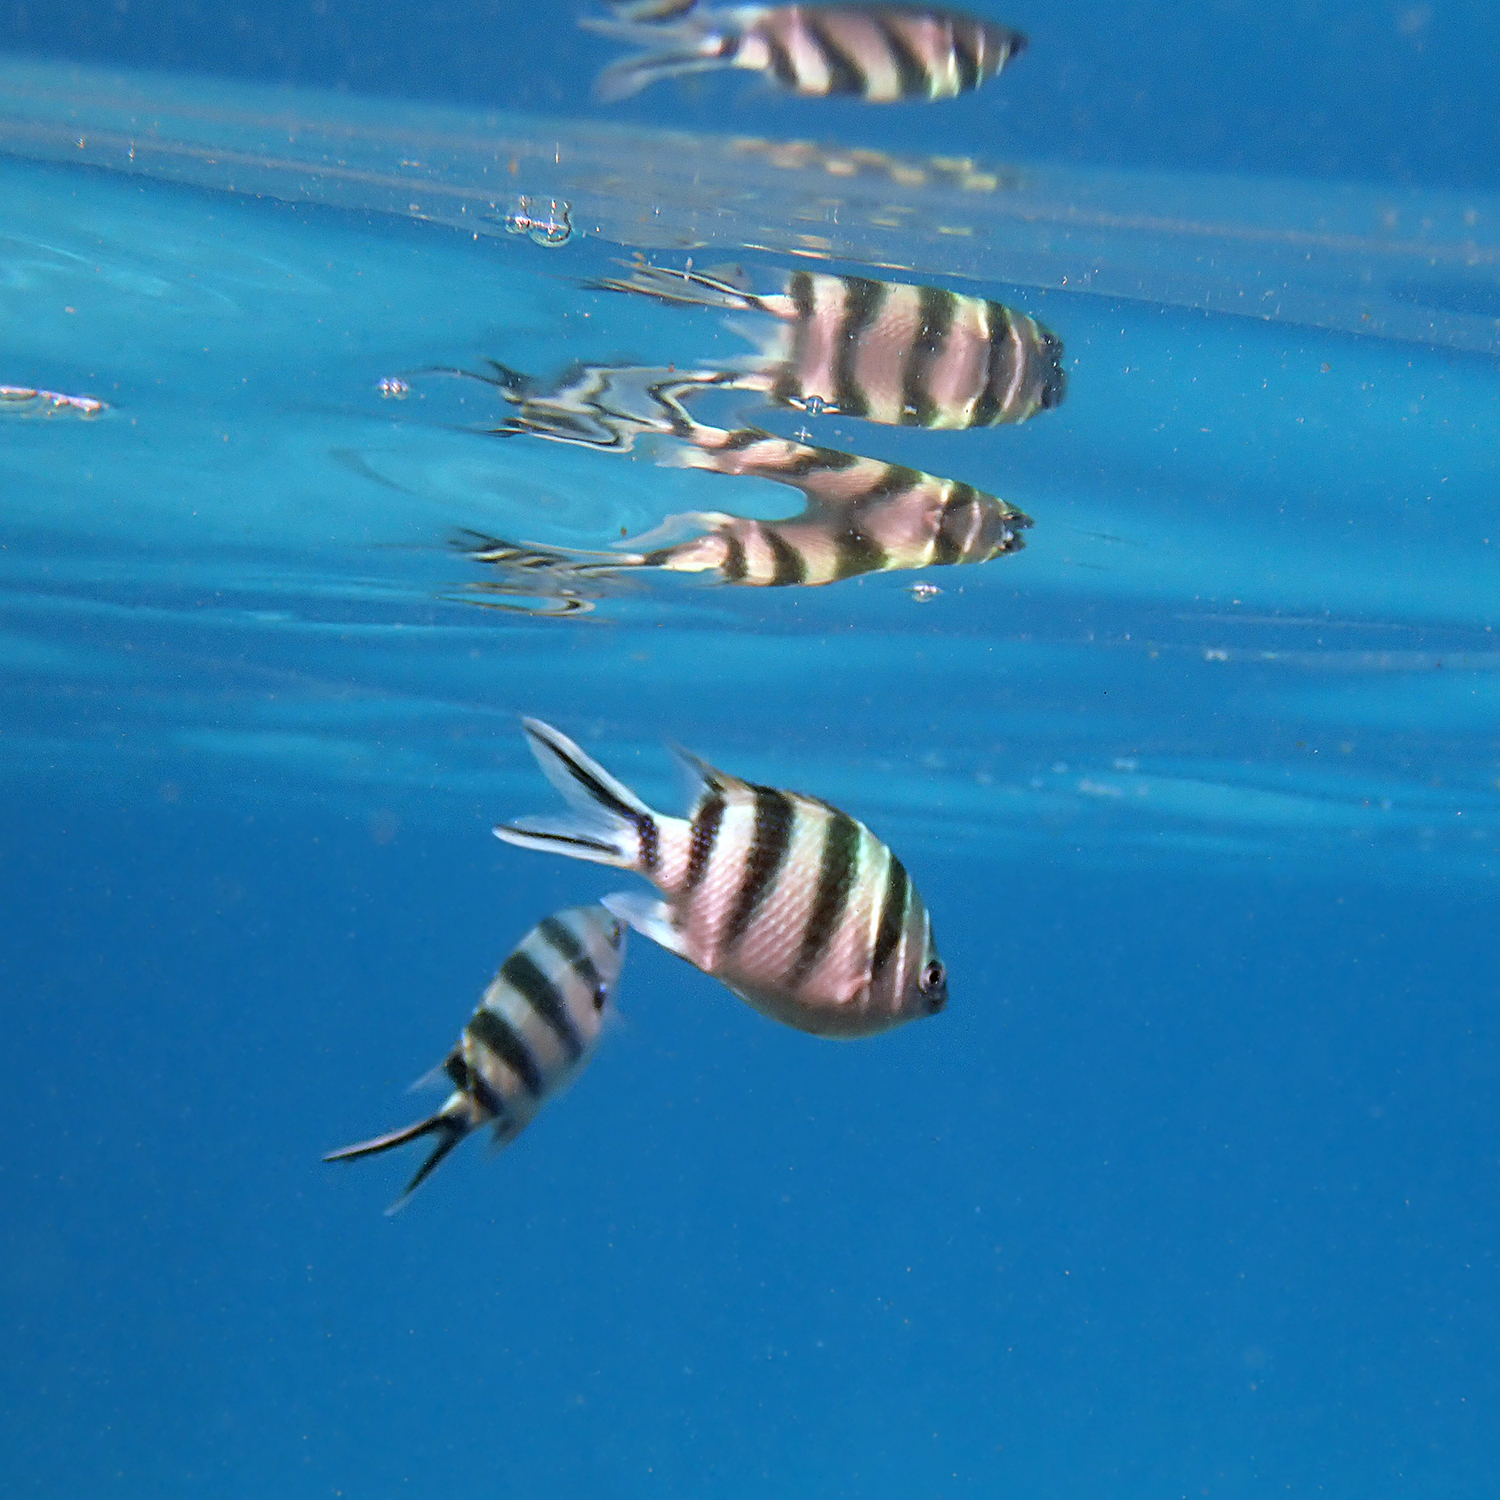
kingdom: Animalia
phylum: Chordata
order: Perciformes
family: Pomacentridae
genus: Abudefduf
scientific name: Abudefduf sexfasciatus
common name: Scissortail sergeant
